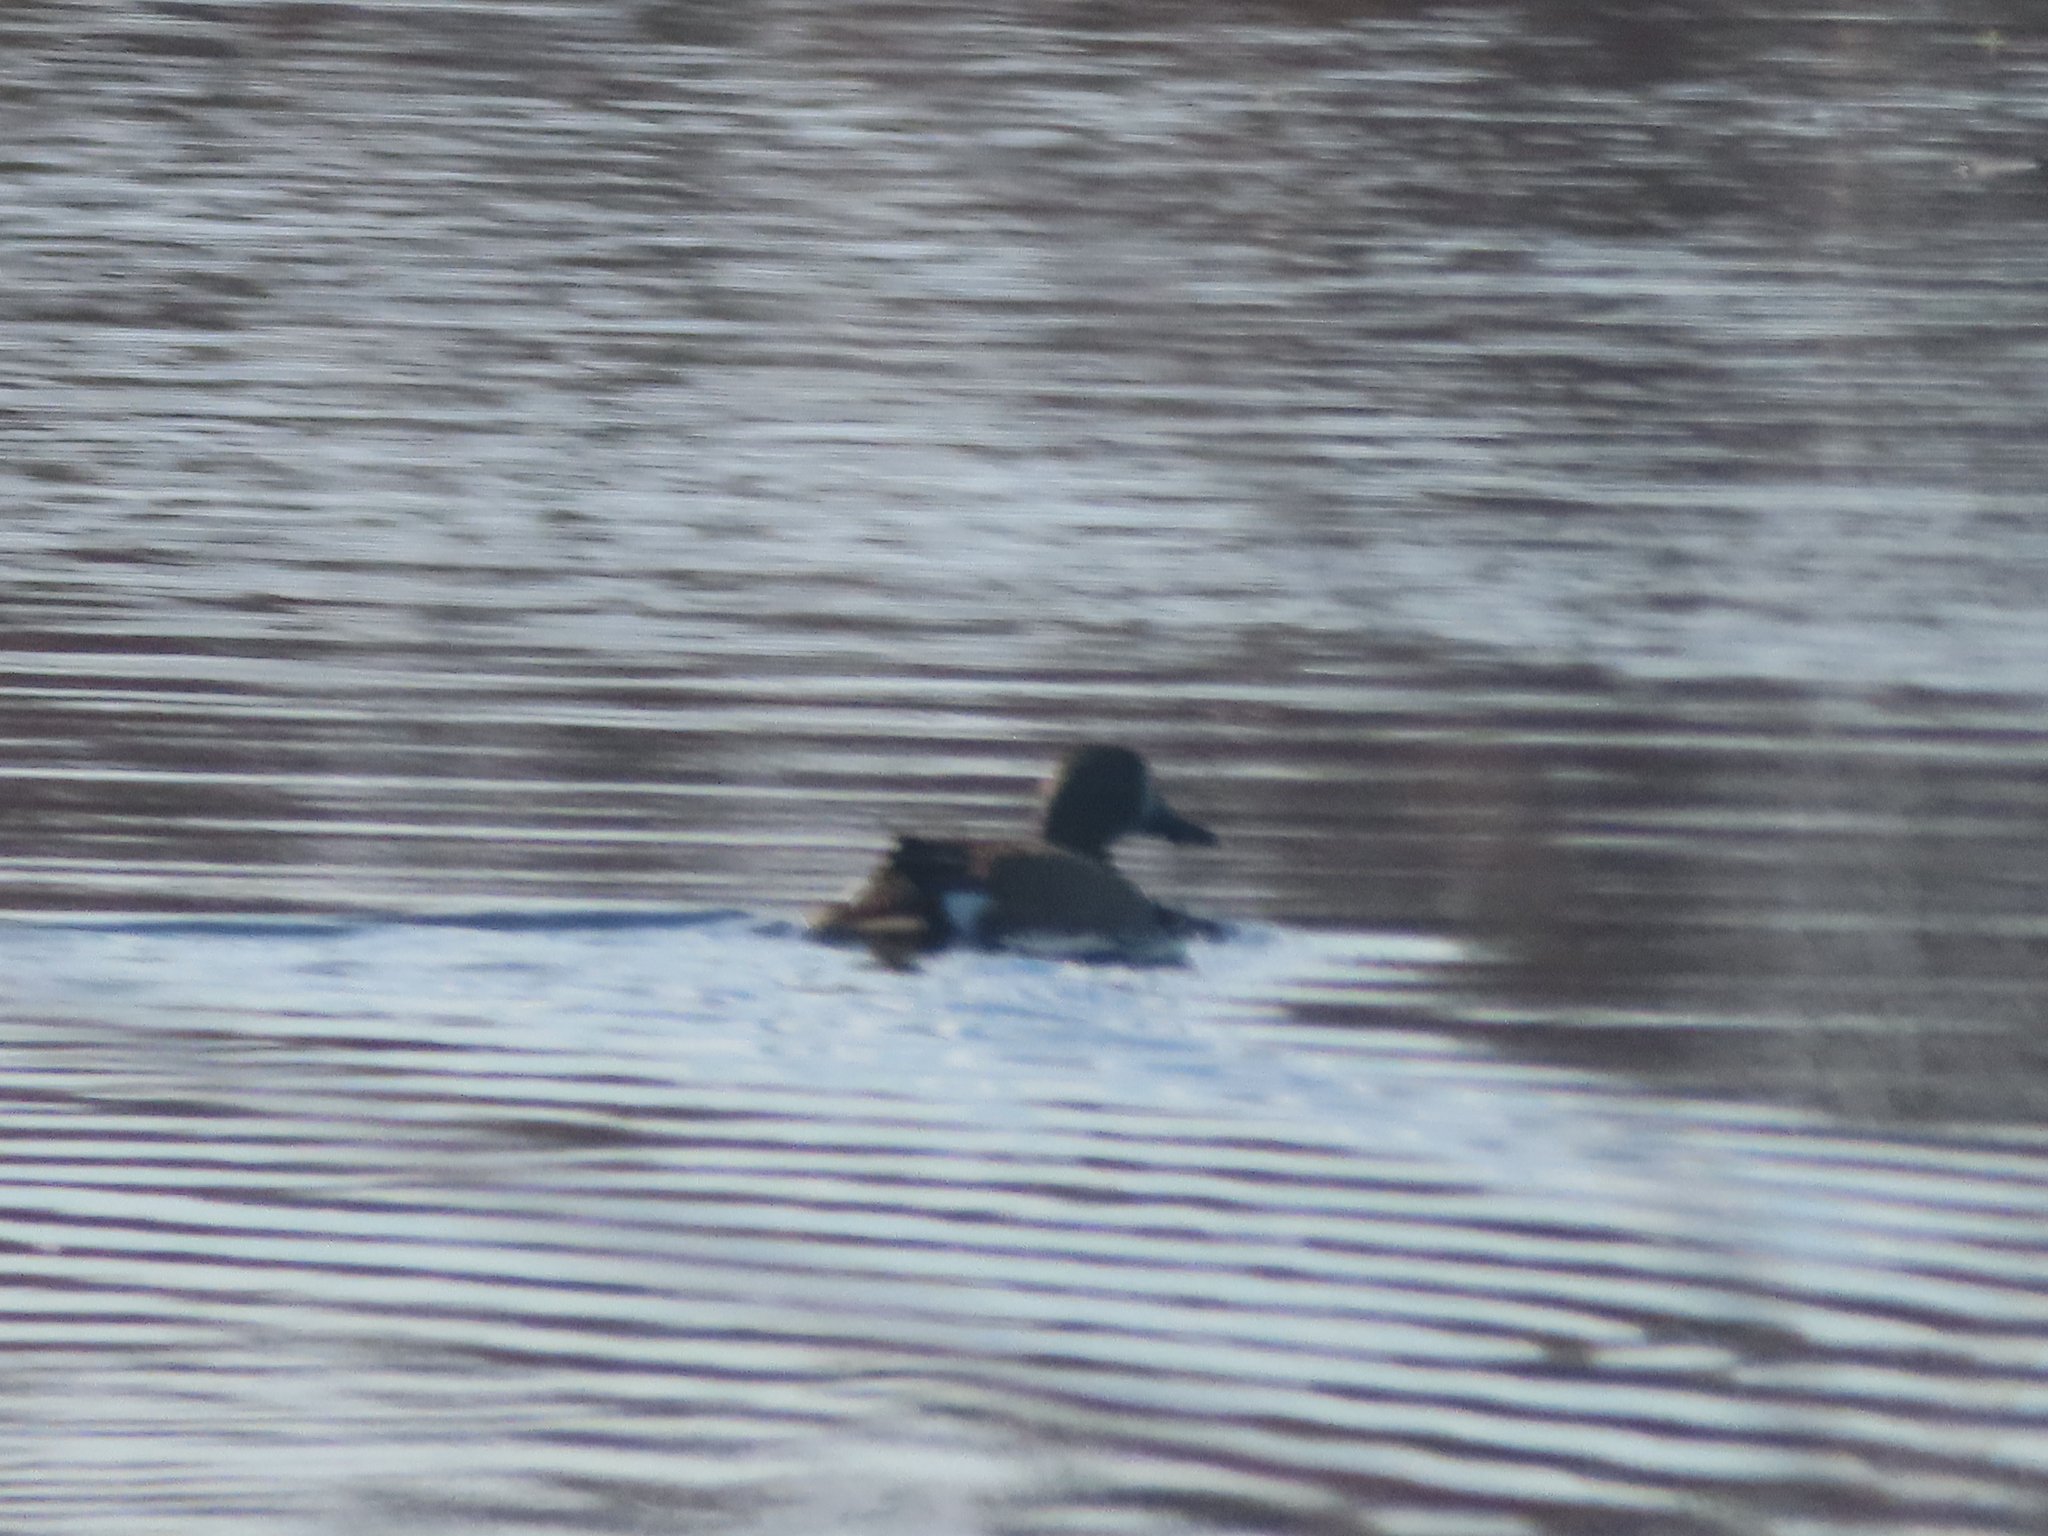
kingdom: Animalia
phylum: Chordata
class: Aves
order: Anseriformes
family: Anatidae
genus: Spatula
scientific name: Spatula discors
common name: Blue-winged teal
